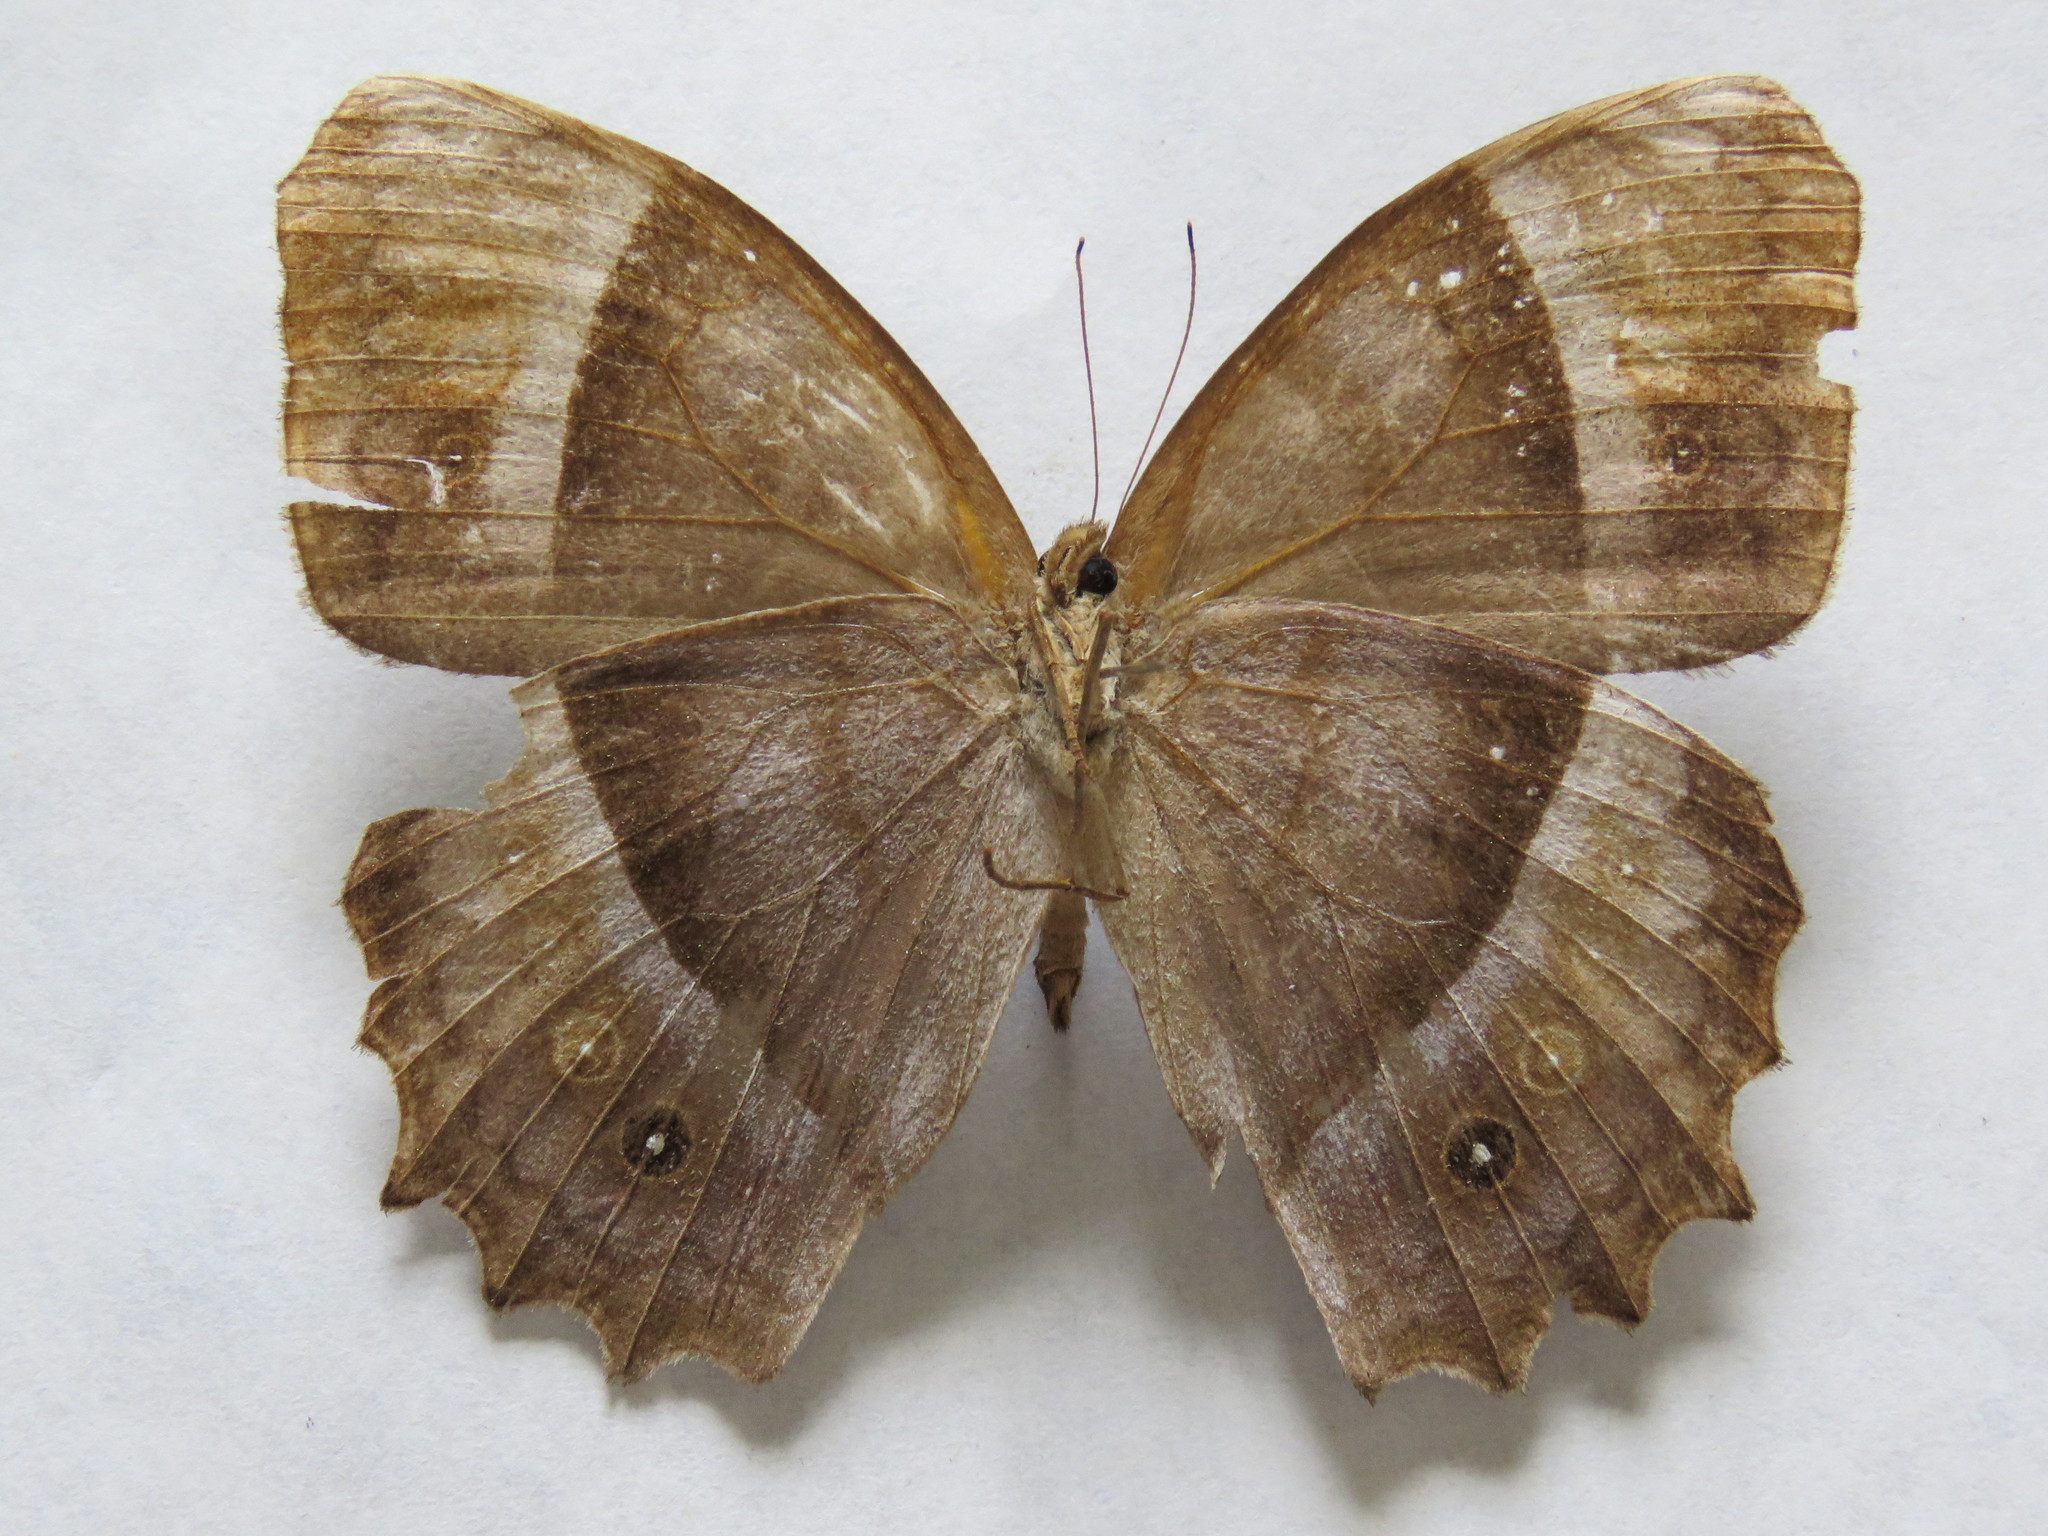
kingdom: Animalia
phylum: Arthropoda
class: Insecta
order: Lepidoptera
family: Nymphalidae
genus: Taygetis
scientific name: Taygetis andromeda
